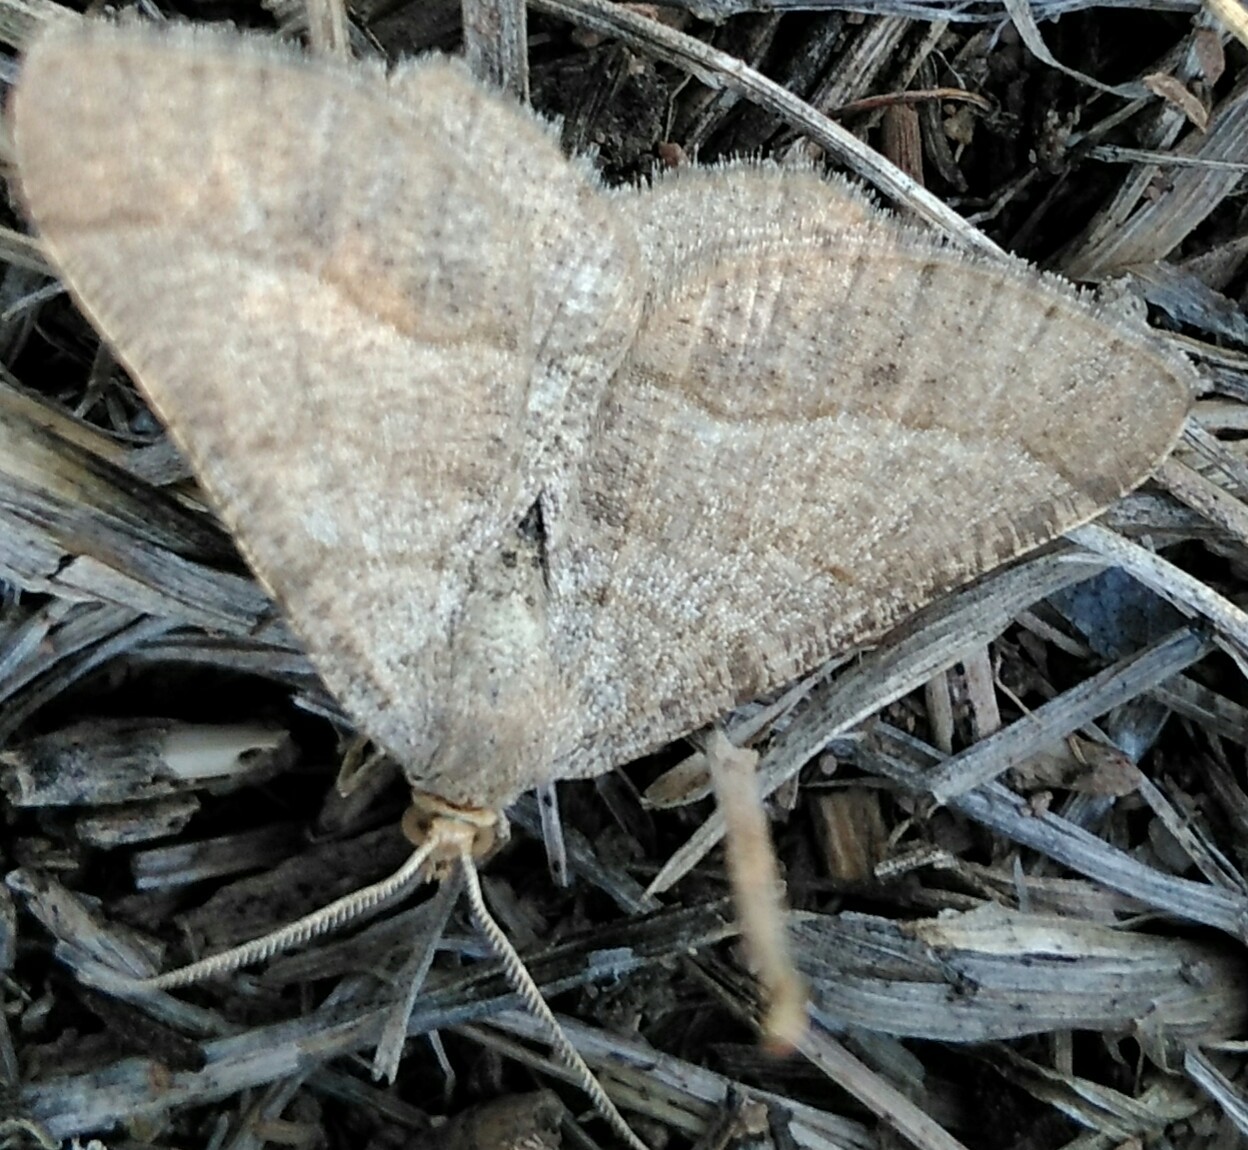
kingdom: Animalia
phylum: Arthropoda
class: Insecta
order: Lepidoptera
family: Geometridae
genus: Tephrina
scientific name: Tephrina murinaria
